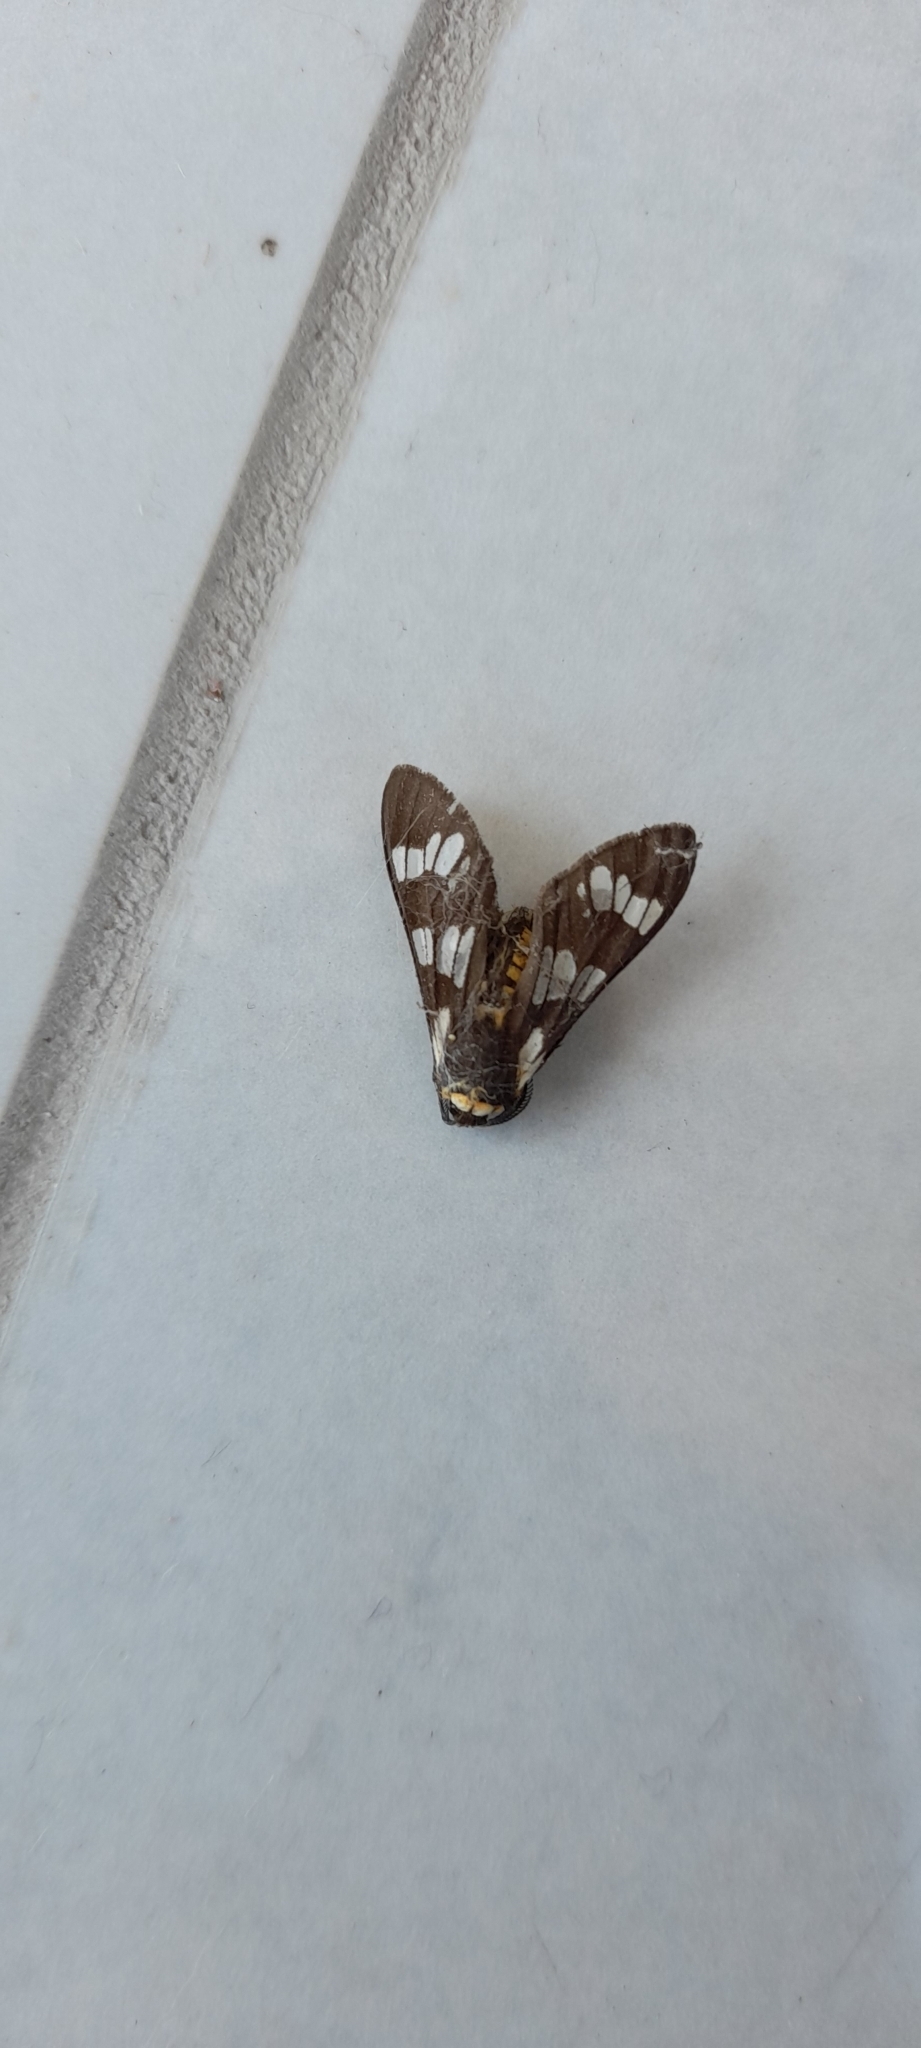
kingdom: Animalia
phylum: Arthropoda
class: Insecta
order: Lepidoptera
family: Erebidae
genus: Eurata
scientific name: Eurata
